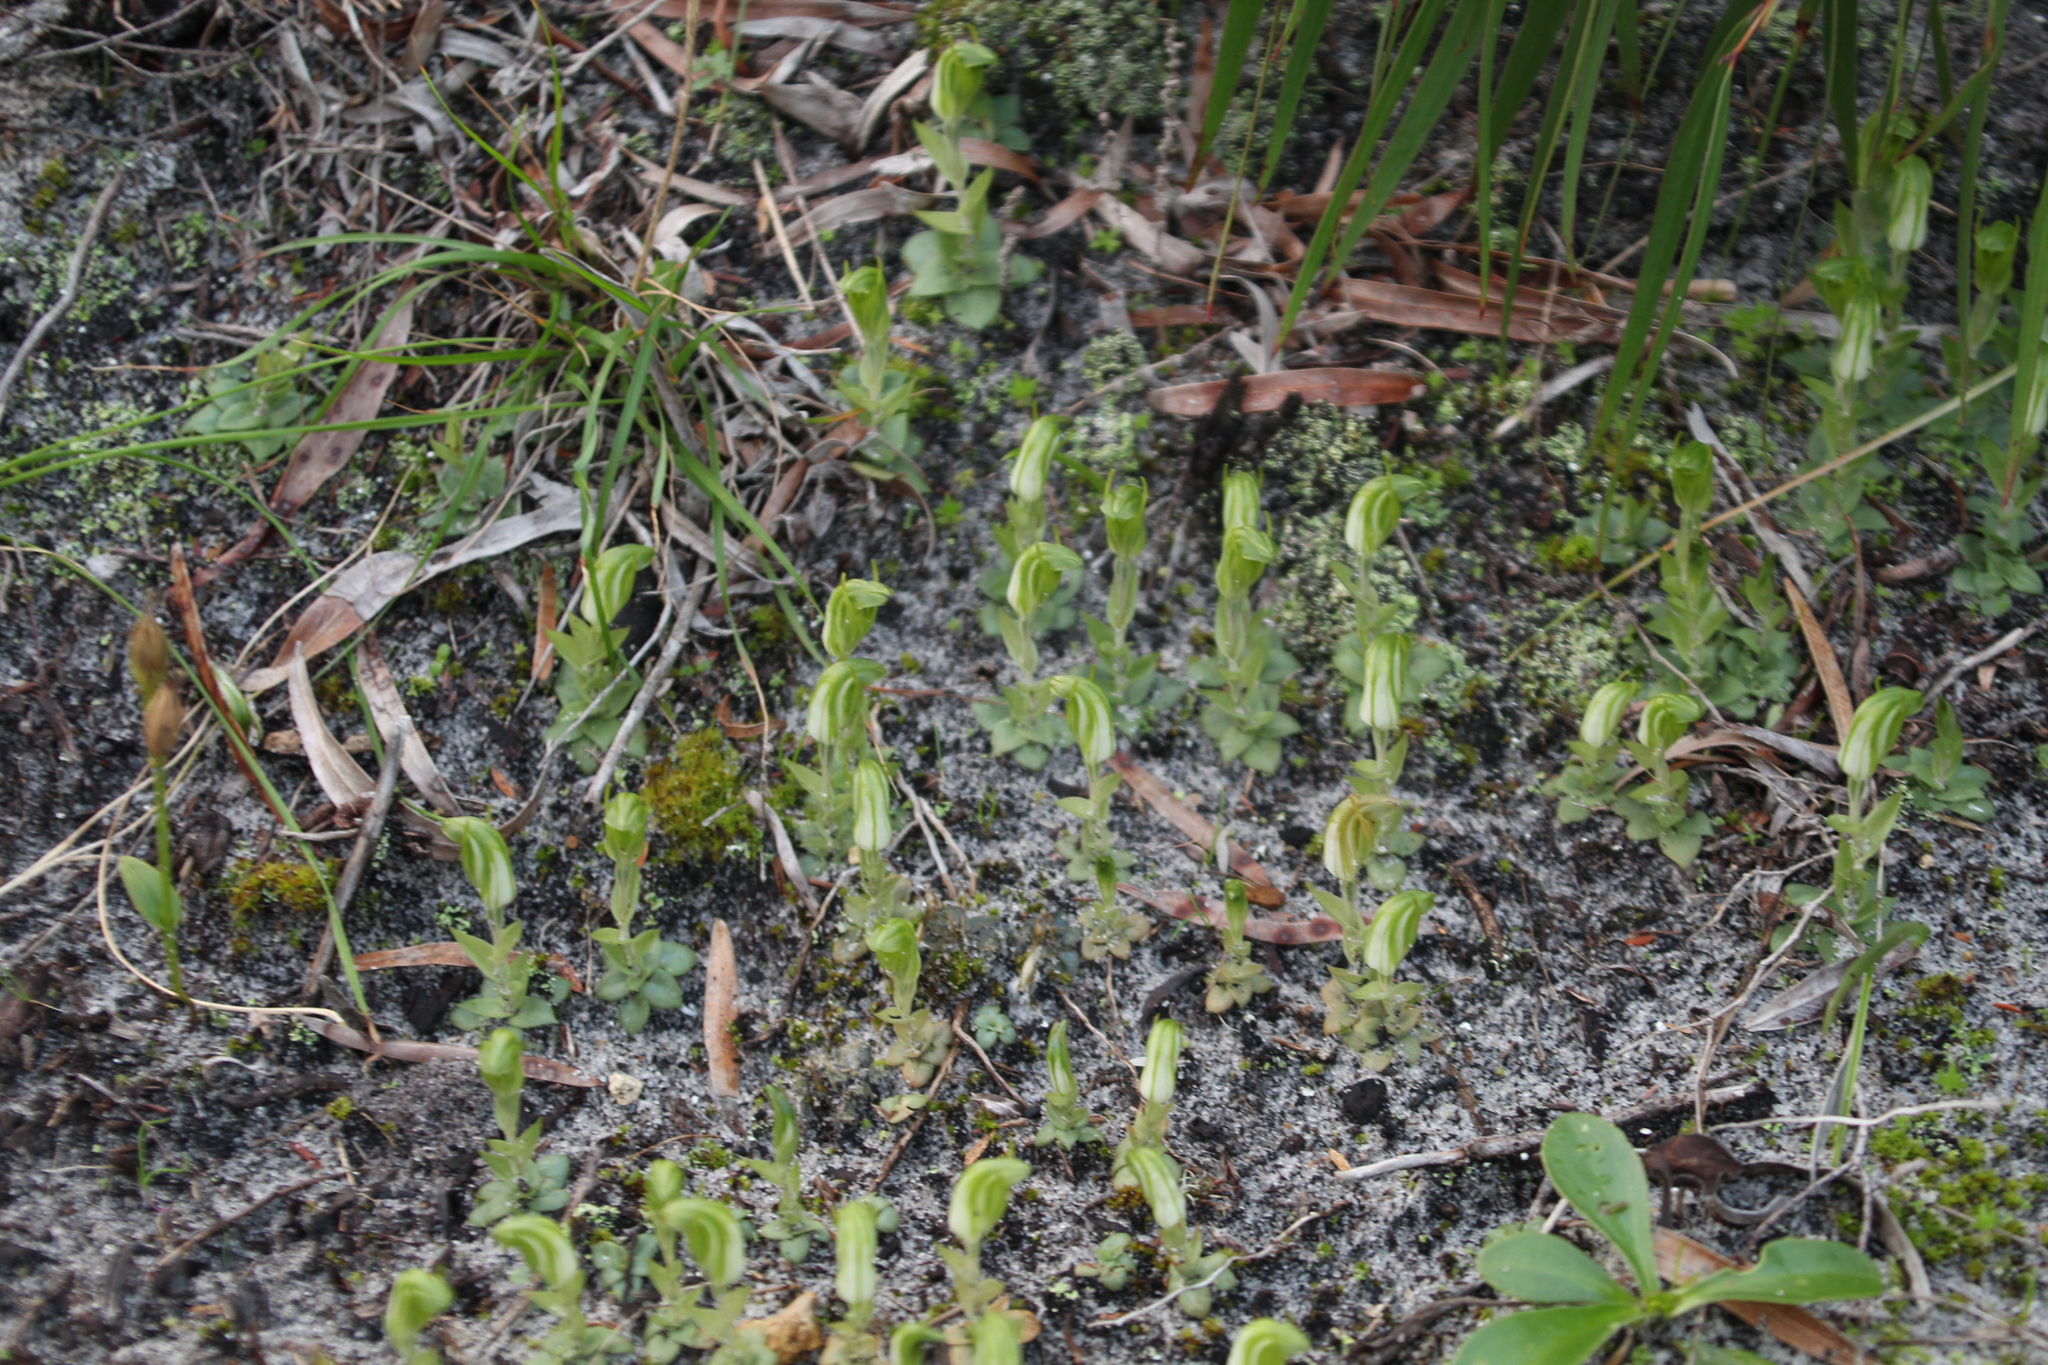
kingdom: Plantae
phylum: Tracheophyta
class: Liliopsida
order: Asparagales
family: Orchidaceae
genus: Pterostylis
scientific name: Pterostylis ectypha
